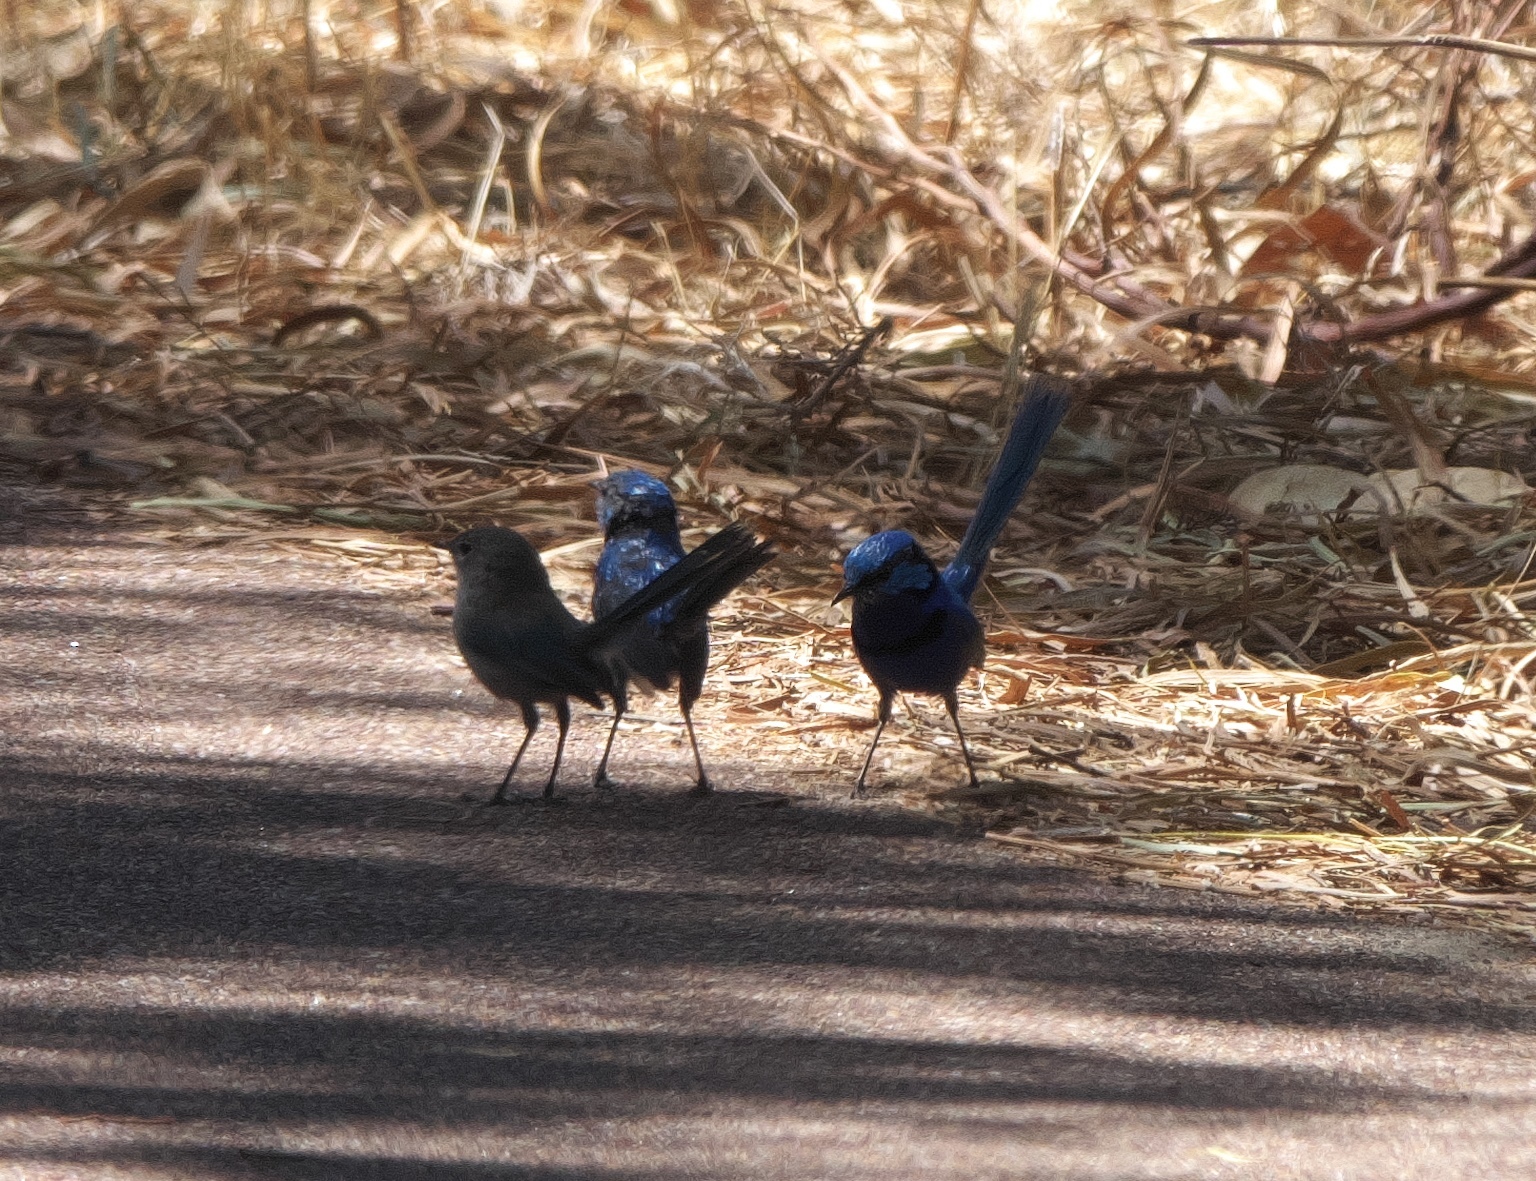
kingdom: Animalia
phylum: Chordata
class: Aves
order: Passeriformes
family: Maluridae
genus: Malurus
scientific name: Malurus splendens
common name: Splendid fairywren
